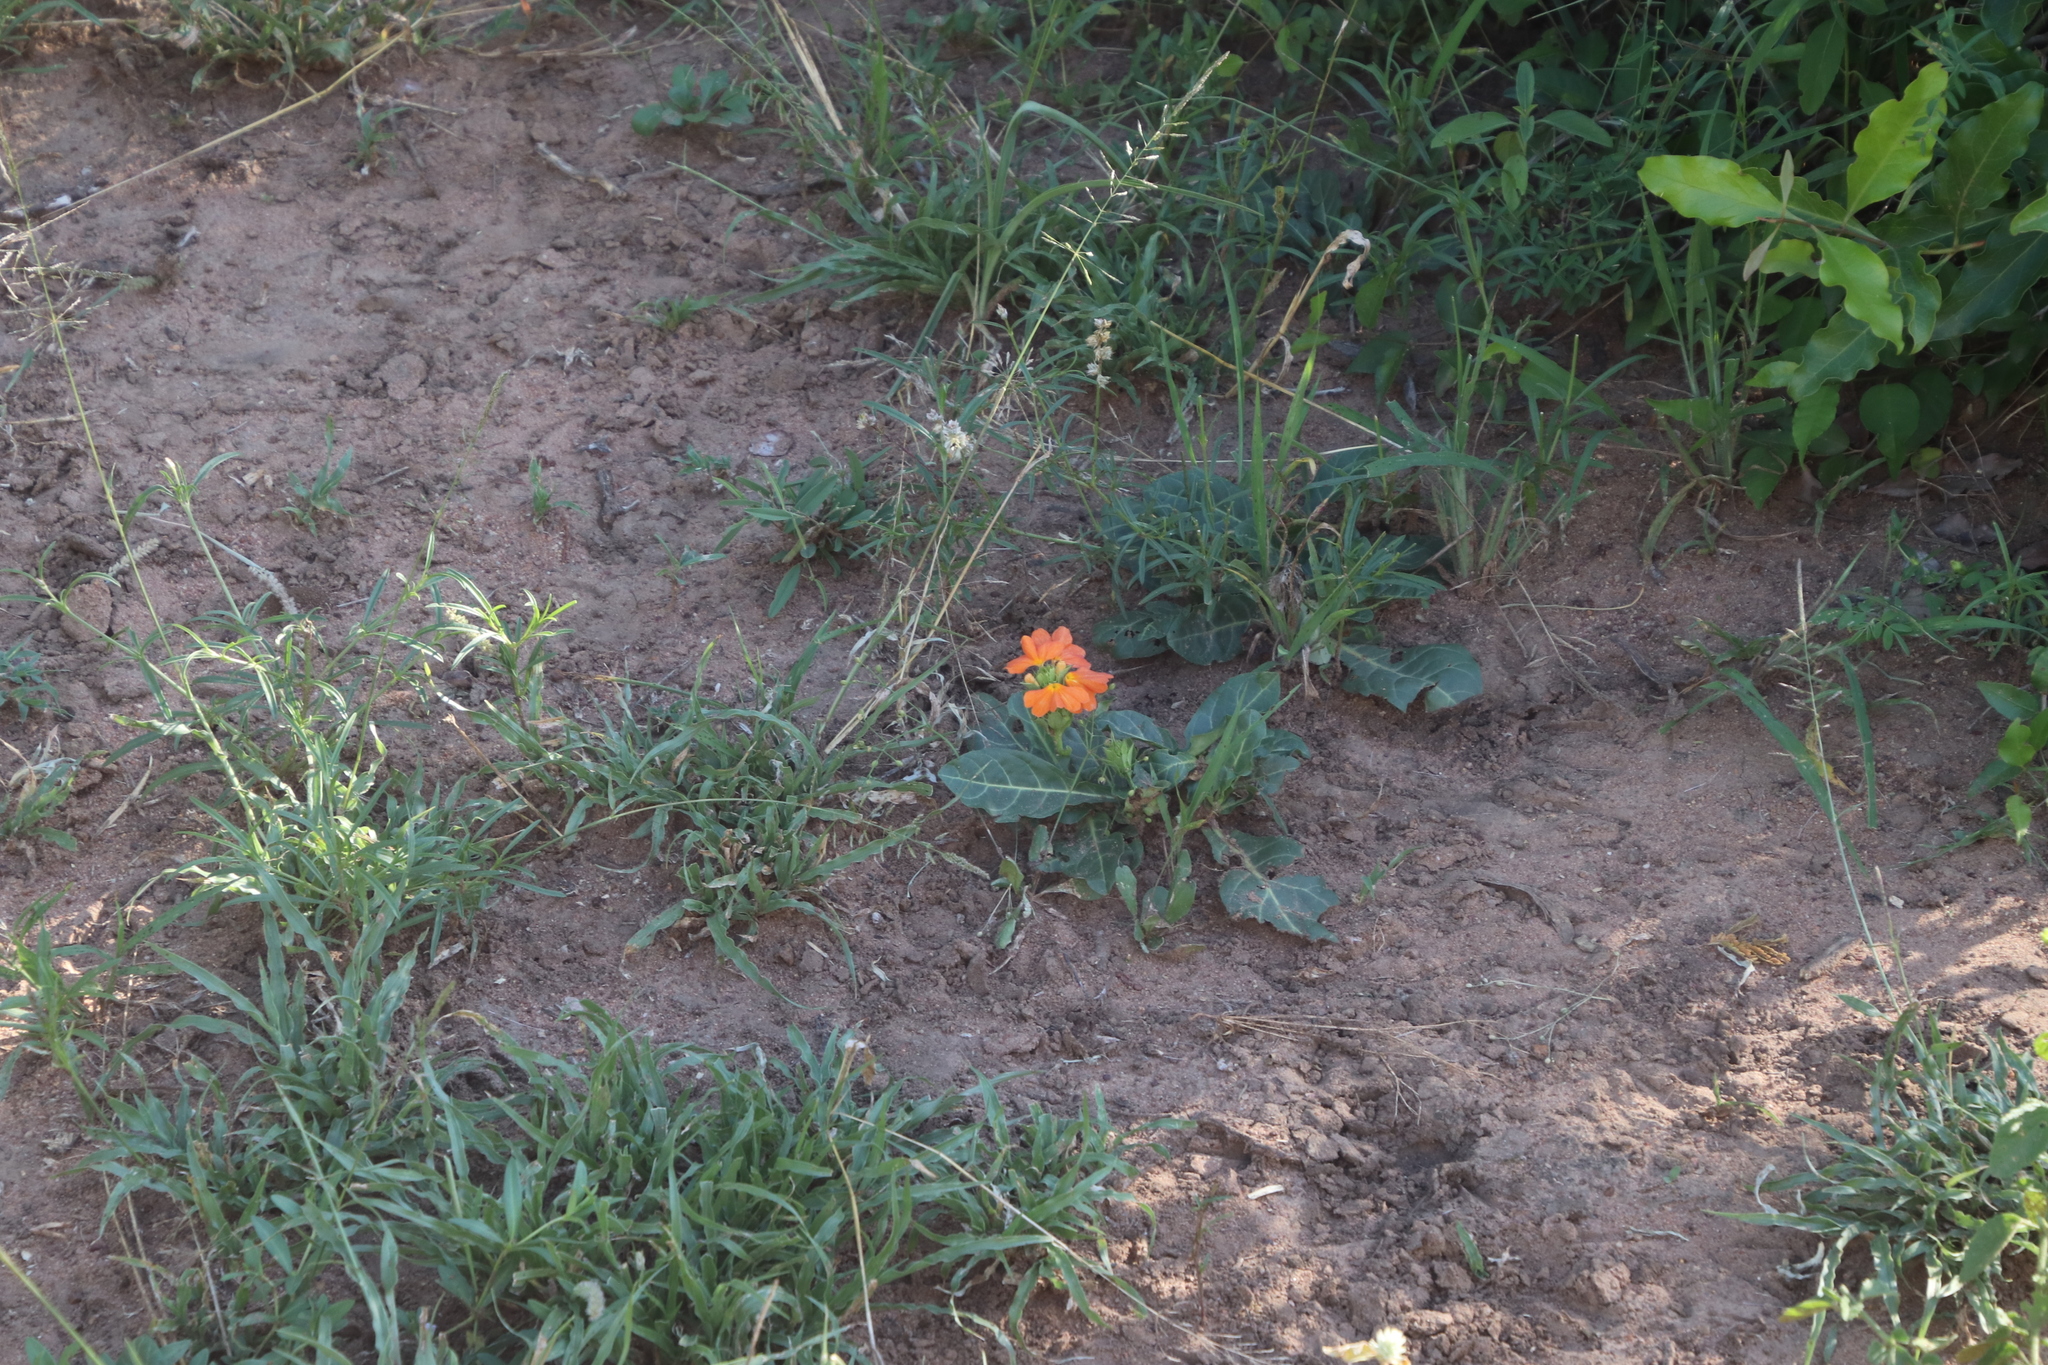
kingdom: Plantae
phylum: Tracheophyta
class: Magnoliopsida
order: Lamiales
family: Acanthaceae
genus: Crossandra
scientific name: Crossandra fruticulosa
